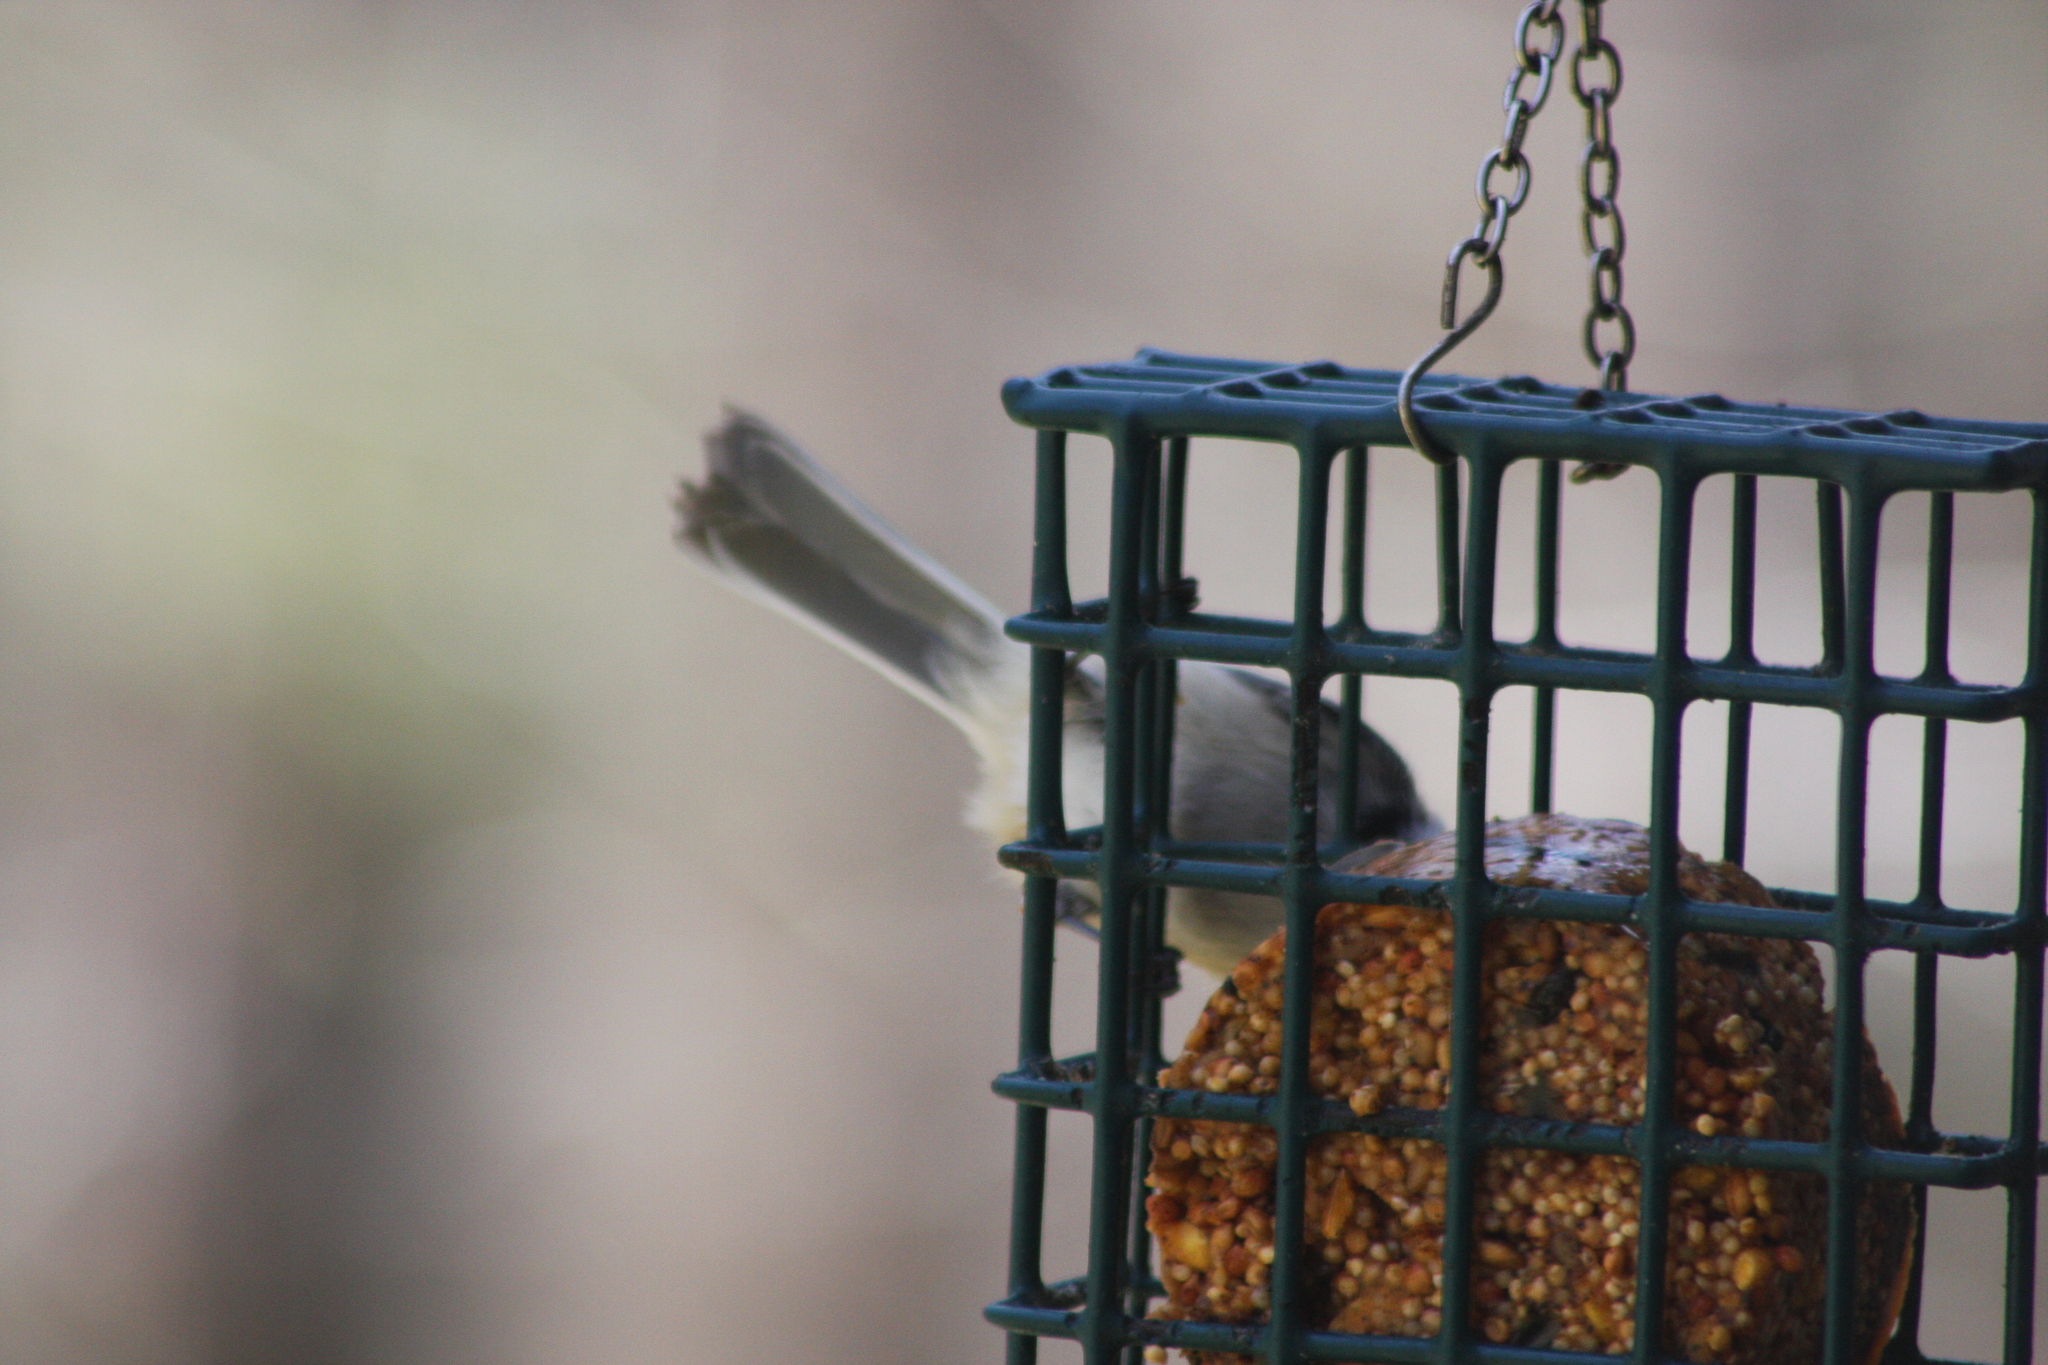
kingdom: Animalia
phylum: Chordata
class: Aves
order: Passeriformes
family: Paridae
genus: Poecile
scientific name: Poecile atricapillus
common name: Black-capped chickadee
